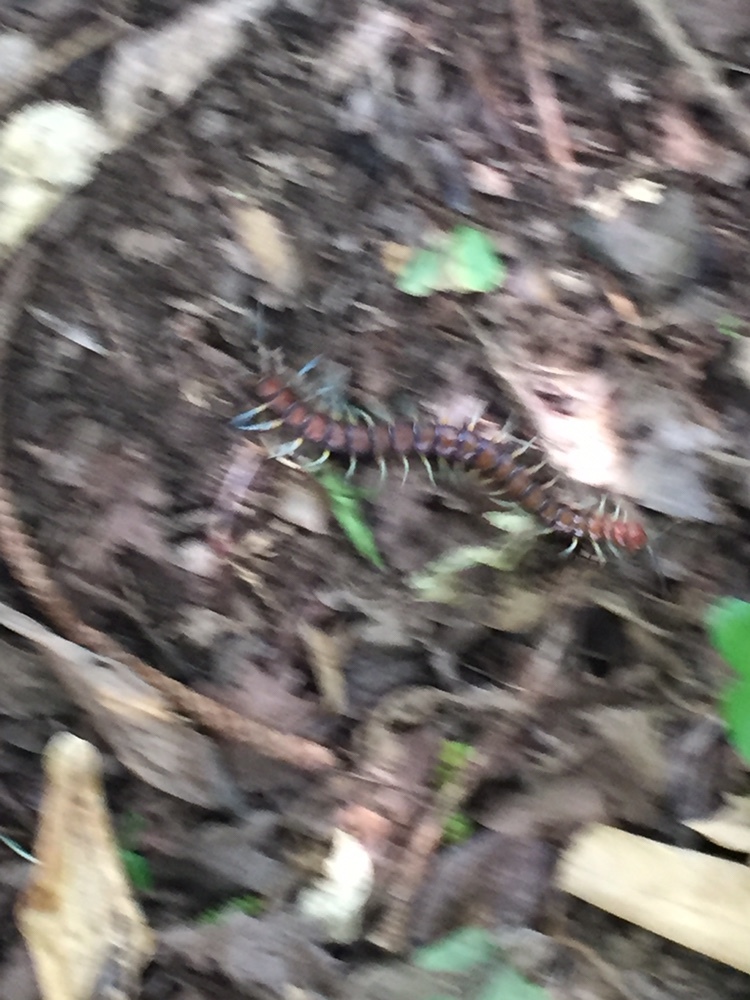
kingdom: Animalia
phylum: Arthropoda
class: Chilopoda
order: Scolopendromorpha
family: Scolopendridae
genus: Cormocephalus
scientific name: Cormocephalus rubriceps
